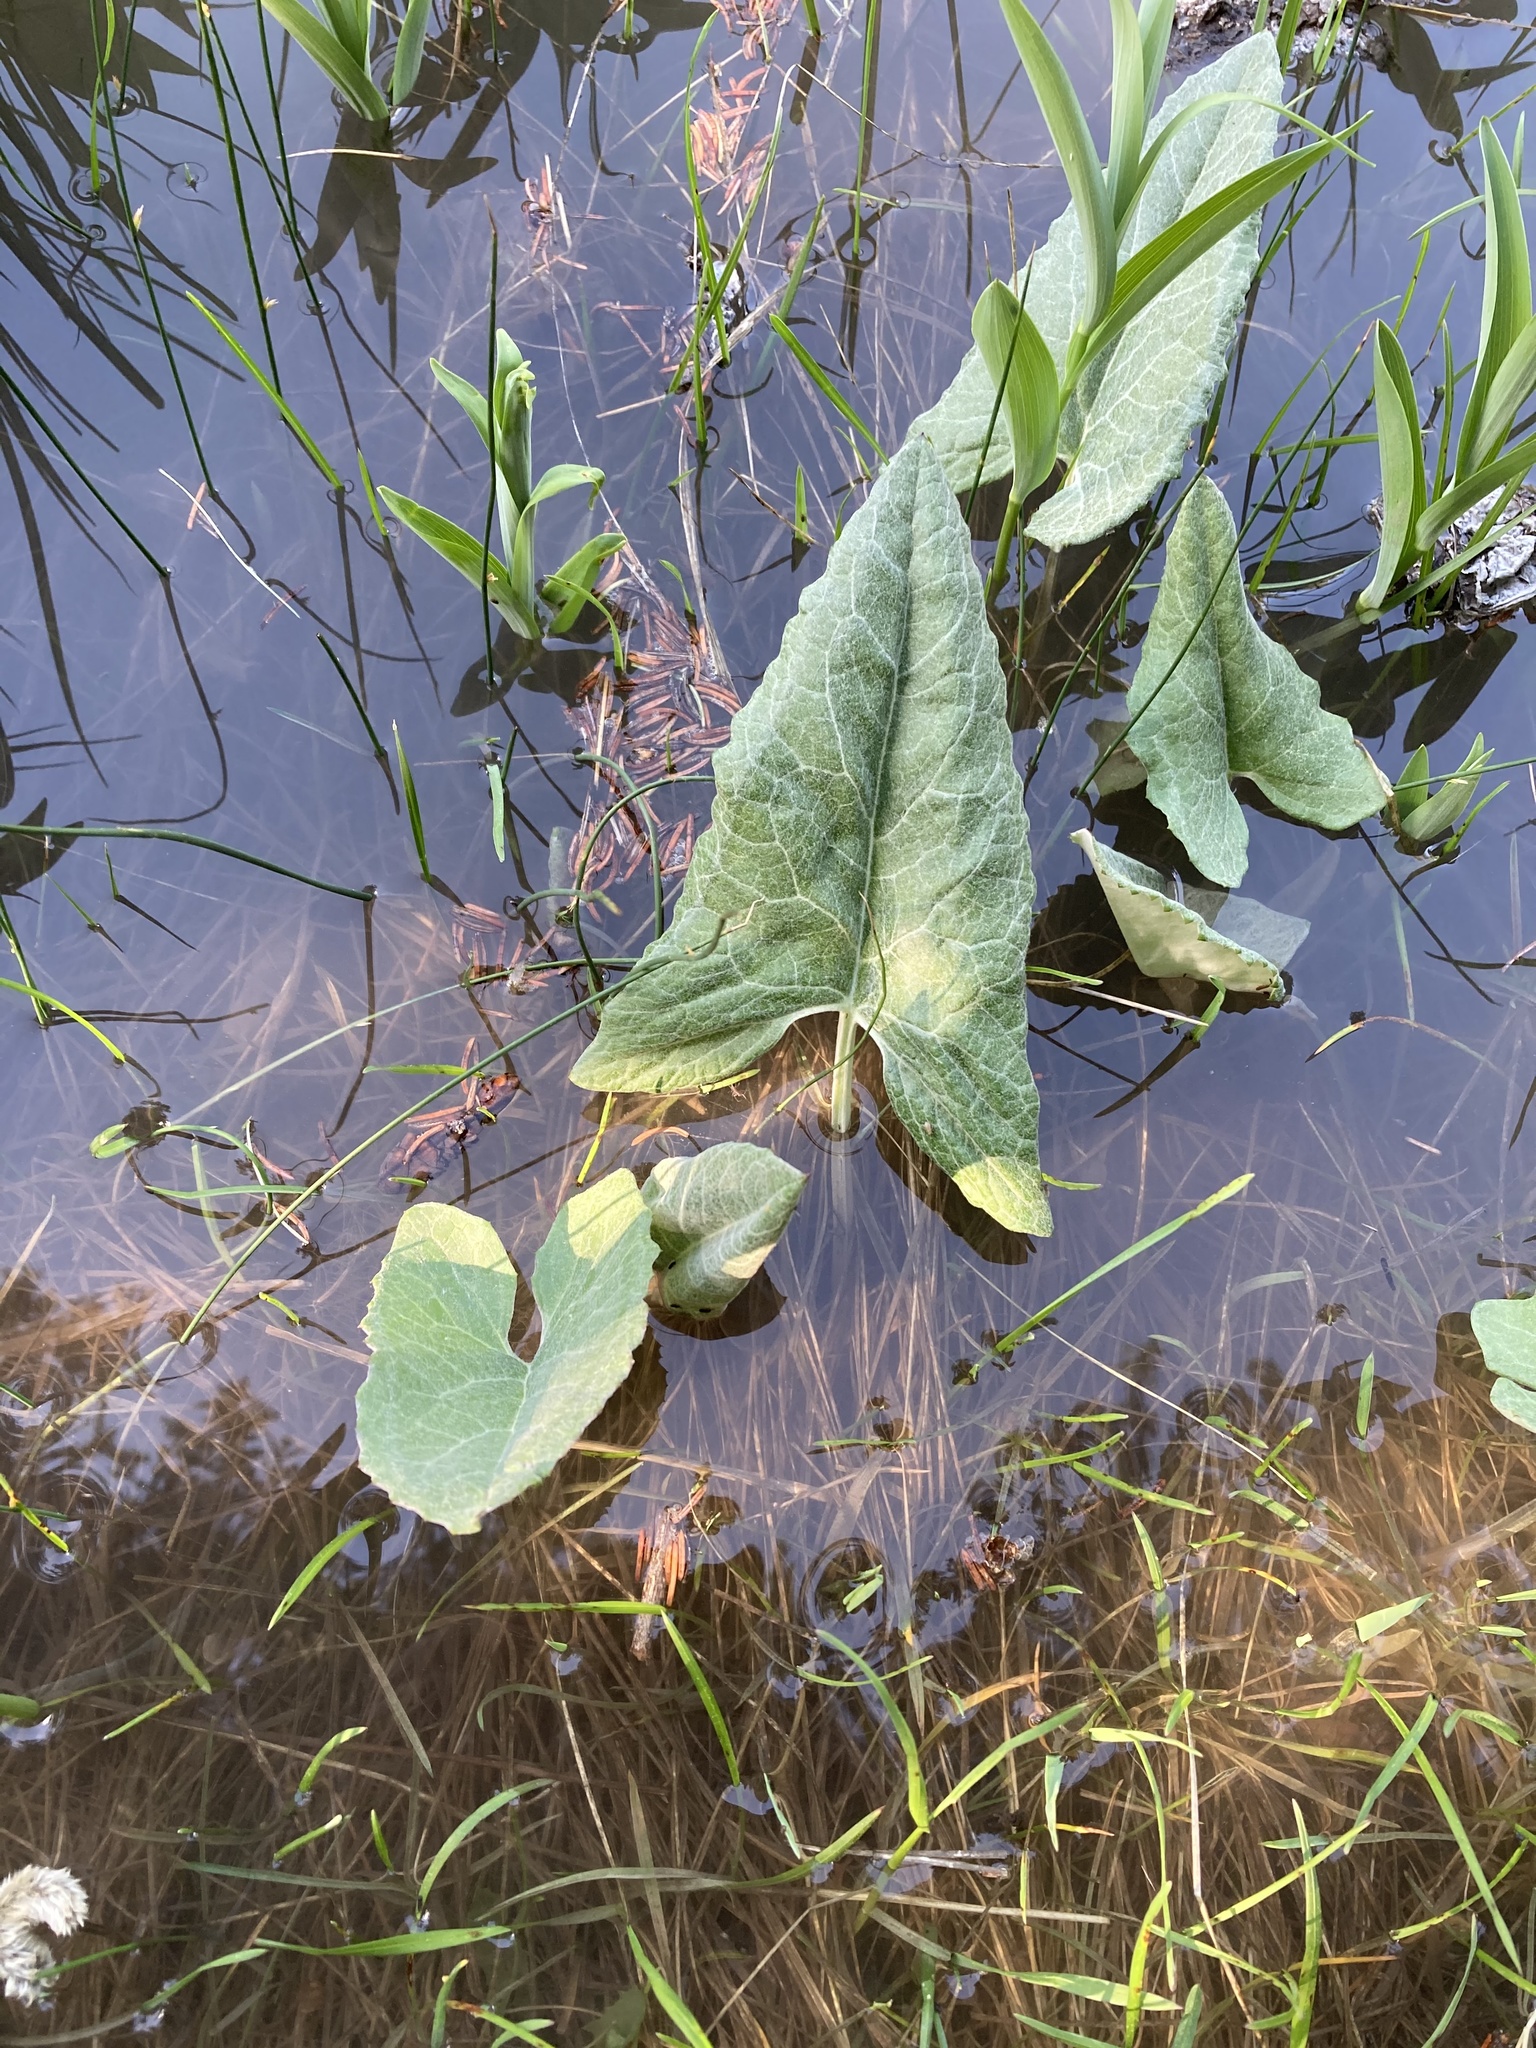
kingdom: Plantae
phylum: Tracheophyta
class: Magnoliopsida
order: Asterales
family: Asteraceae
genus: Petasites
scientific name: Petasites frigidus
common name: Arctic butterbur
